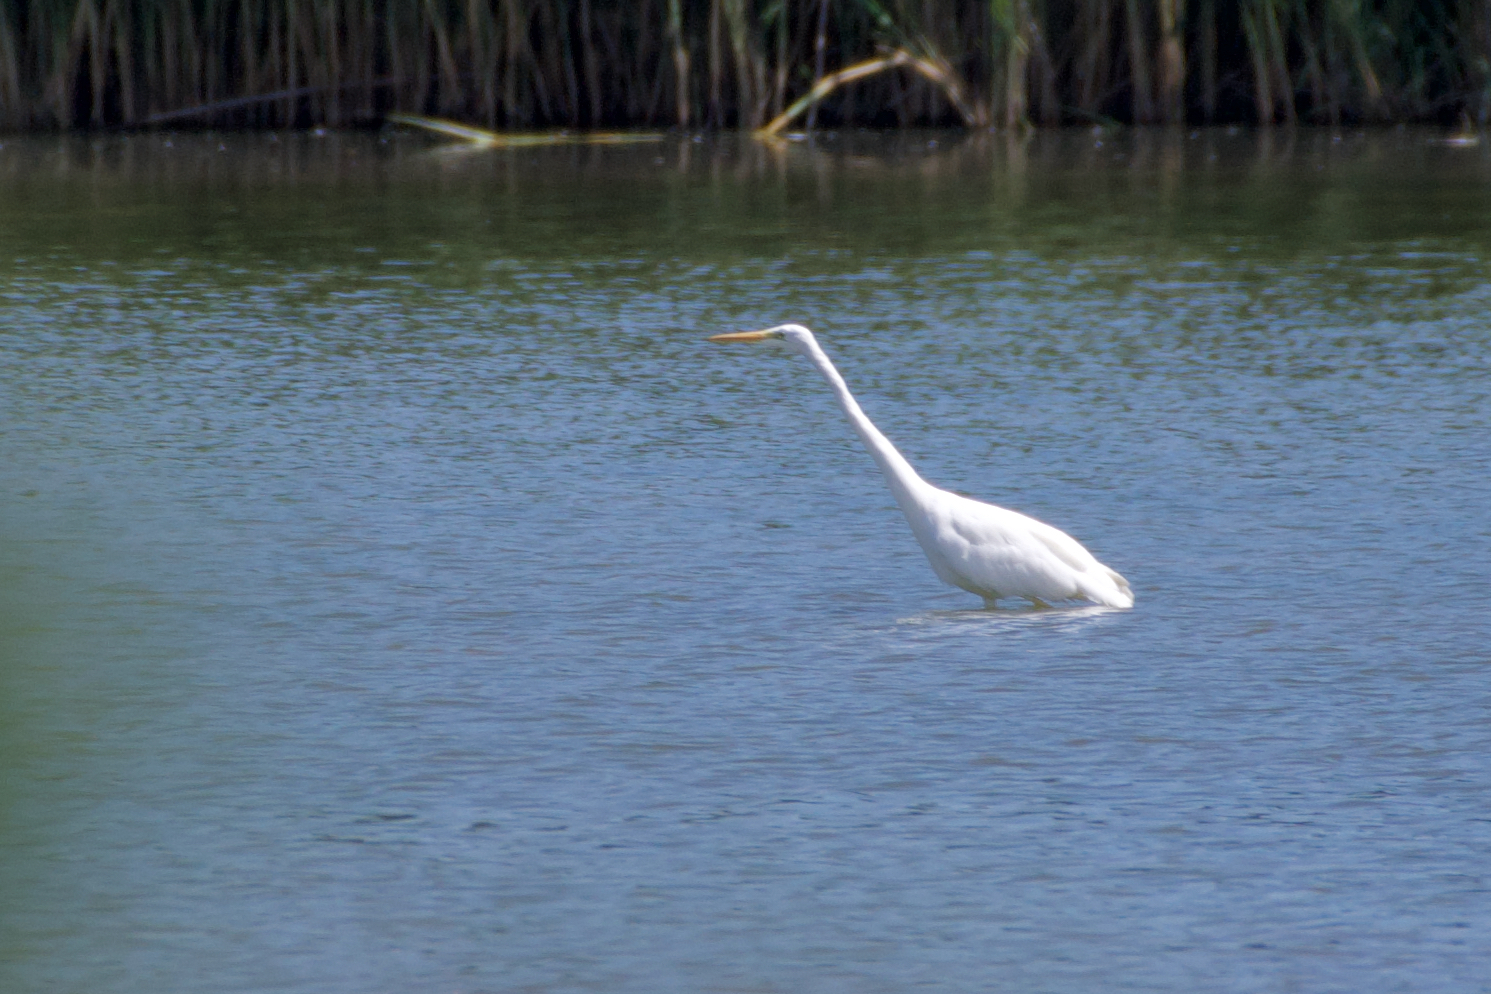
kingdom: Animalia
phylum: Chordata
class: Aves
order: Pelecaniformes
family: Ardeidae
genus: Ardea
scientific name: Ardea alba
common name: Great egret
